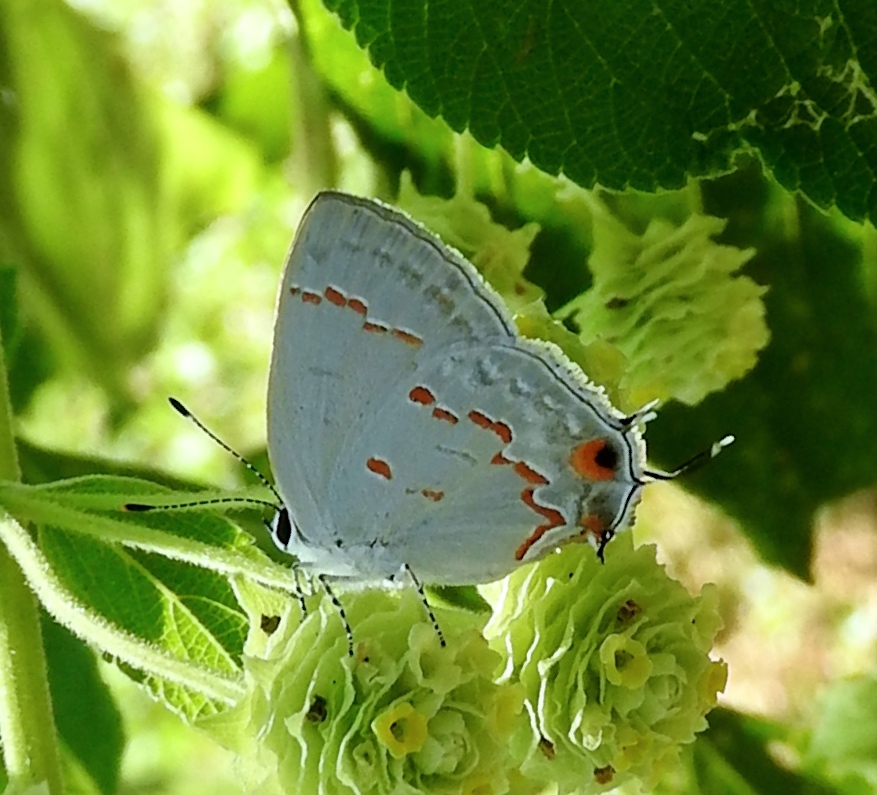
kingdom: Animalia
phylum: Arthropoda
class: Insecta
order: Lepidoptera
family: Lycaenidae
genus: Thecla
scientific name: Thecla megarus
